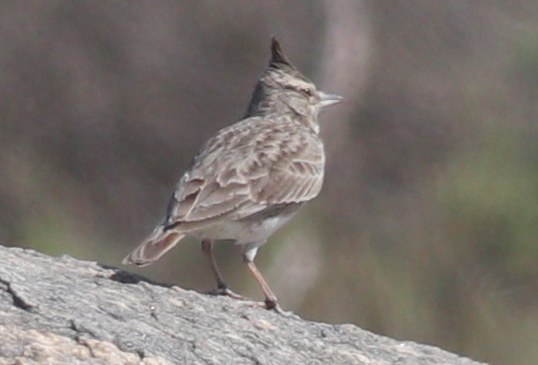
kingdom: Animalia
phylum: Chordata
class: Aves
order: Passeriformes
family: Alaudidae
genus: Galerida
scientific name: Galerida cristata
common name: Crested lark
